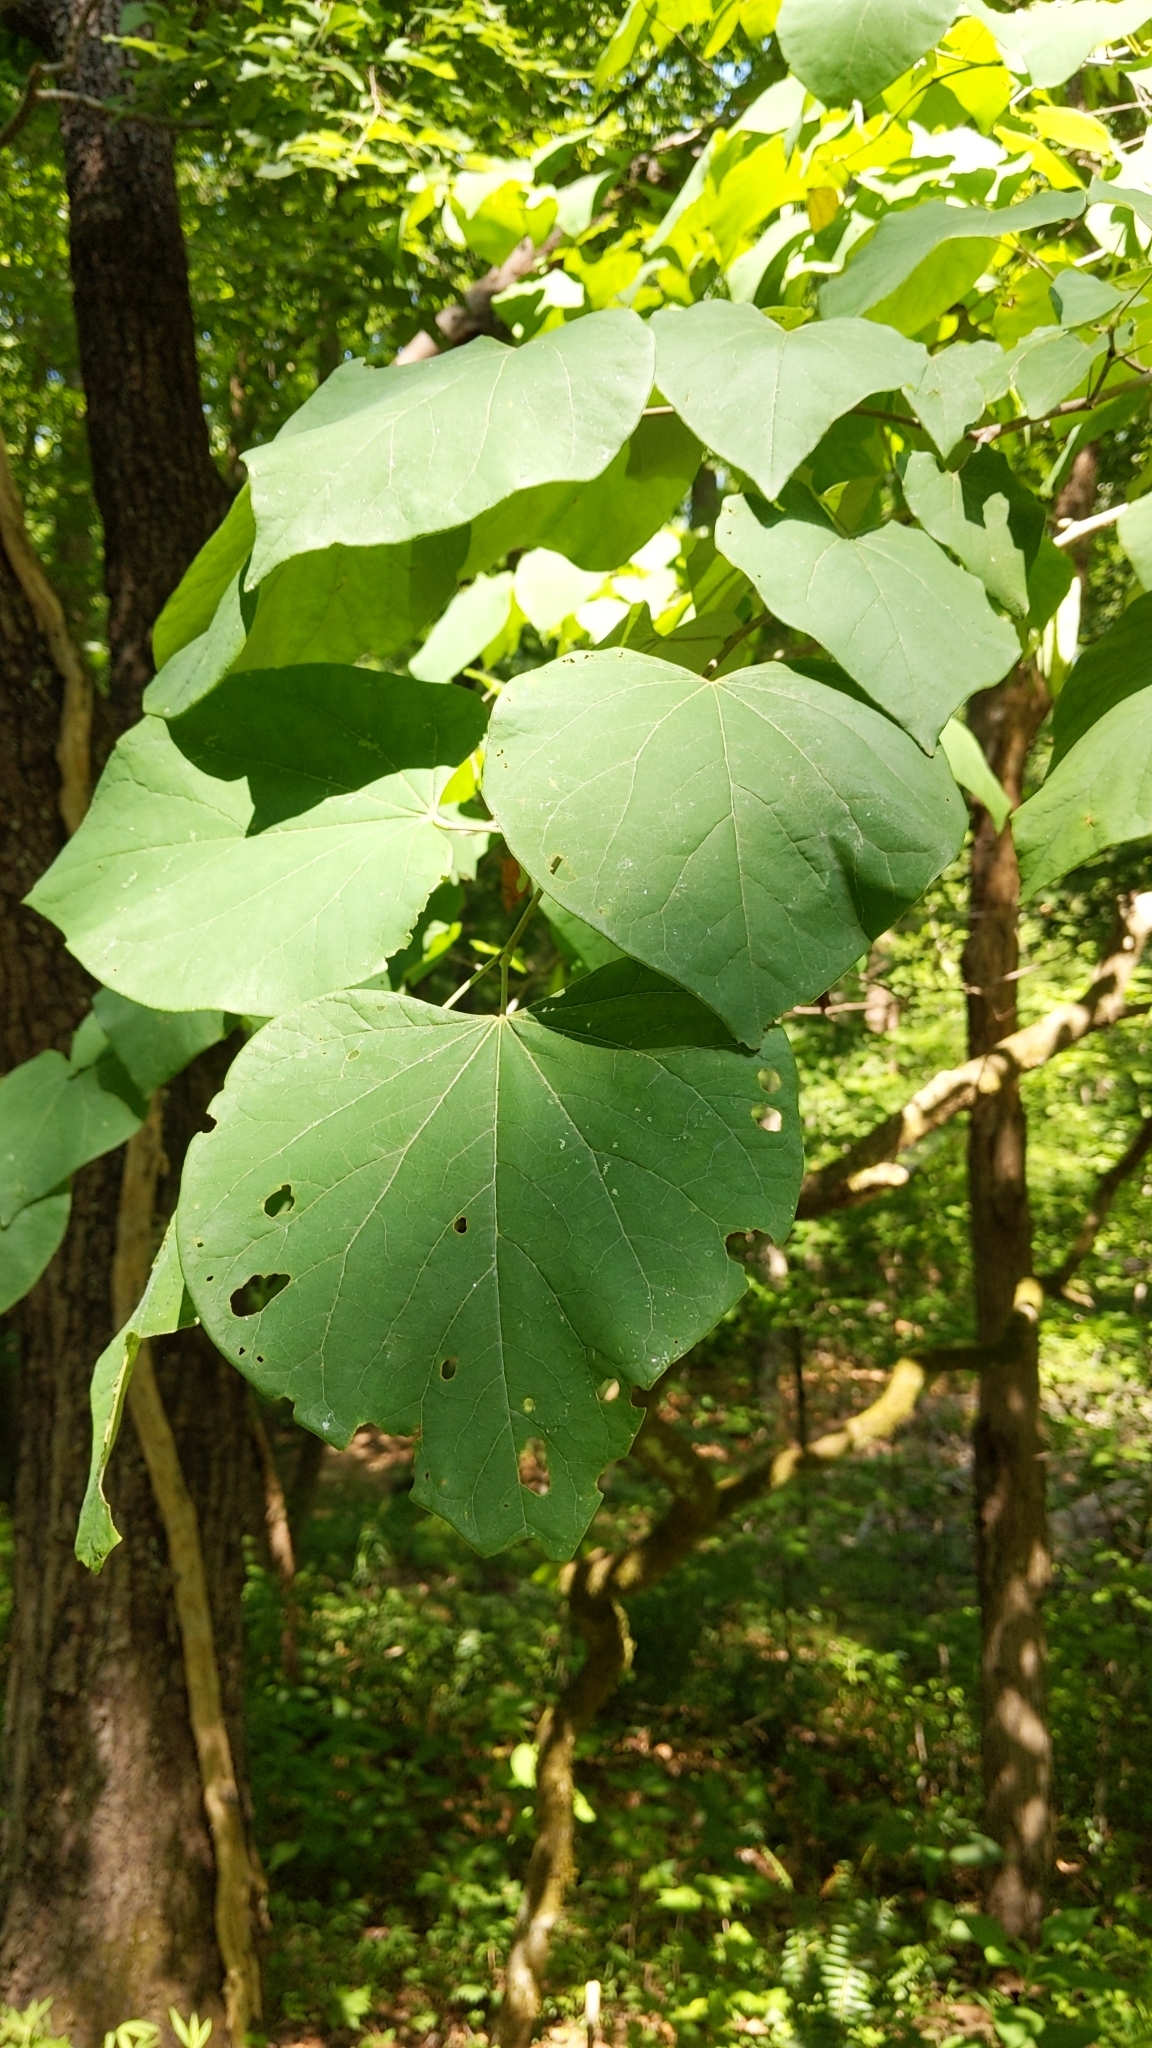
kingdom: Plantae
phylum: Tracheophyta
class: Magnoliopsida
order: Fabales
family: Fabaceae
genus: Cercis
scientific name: Cercis canadensis
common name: Eastern redbud
